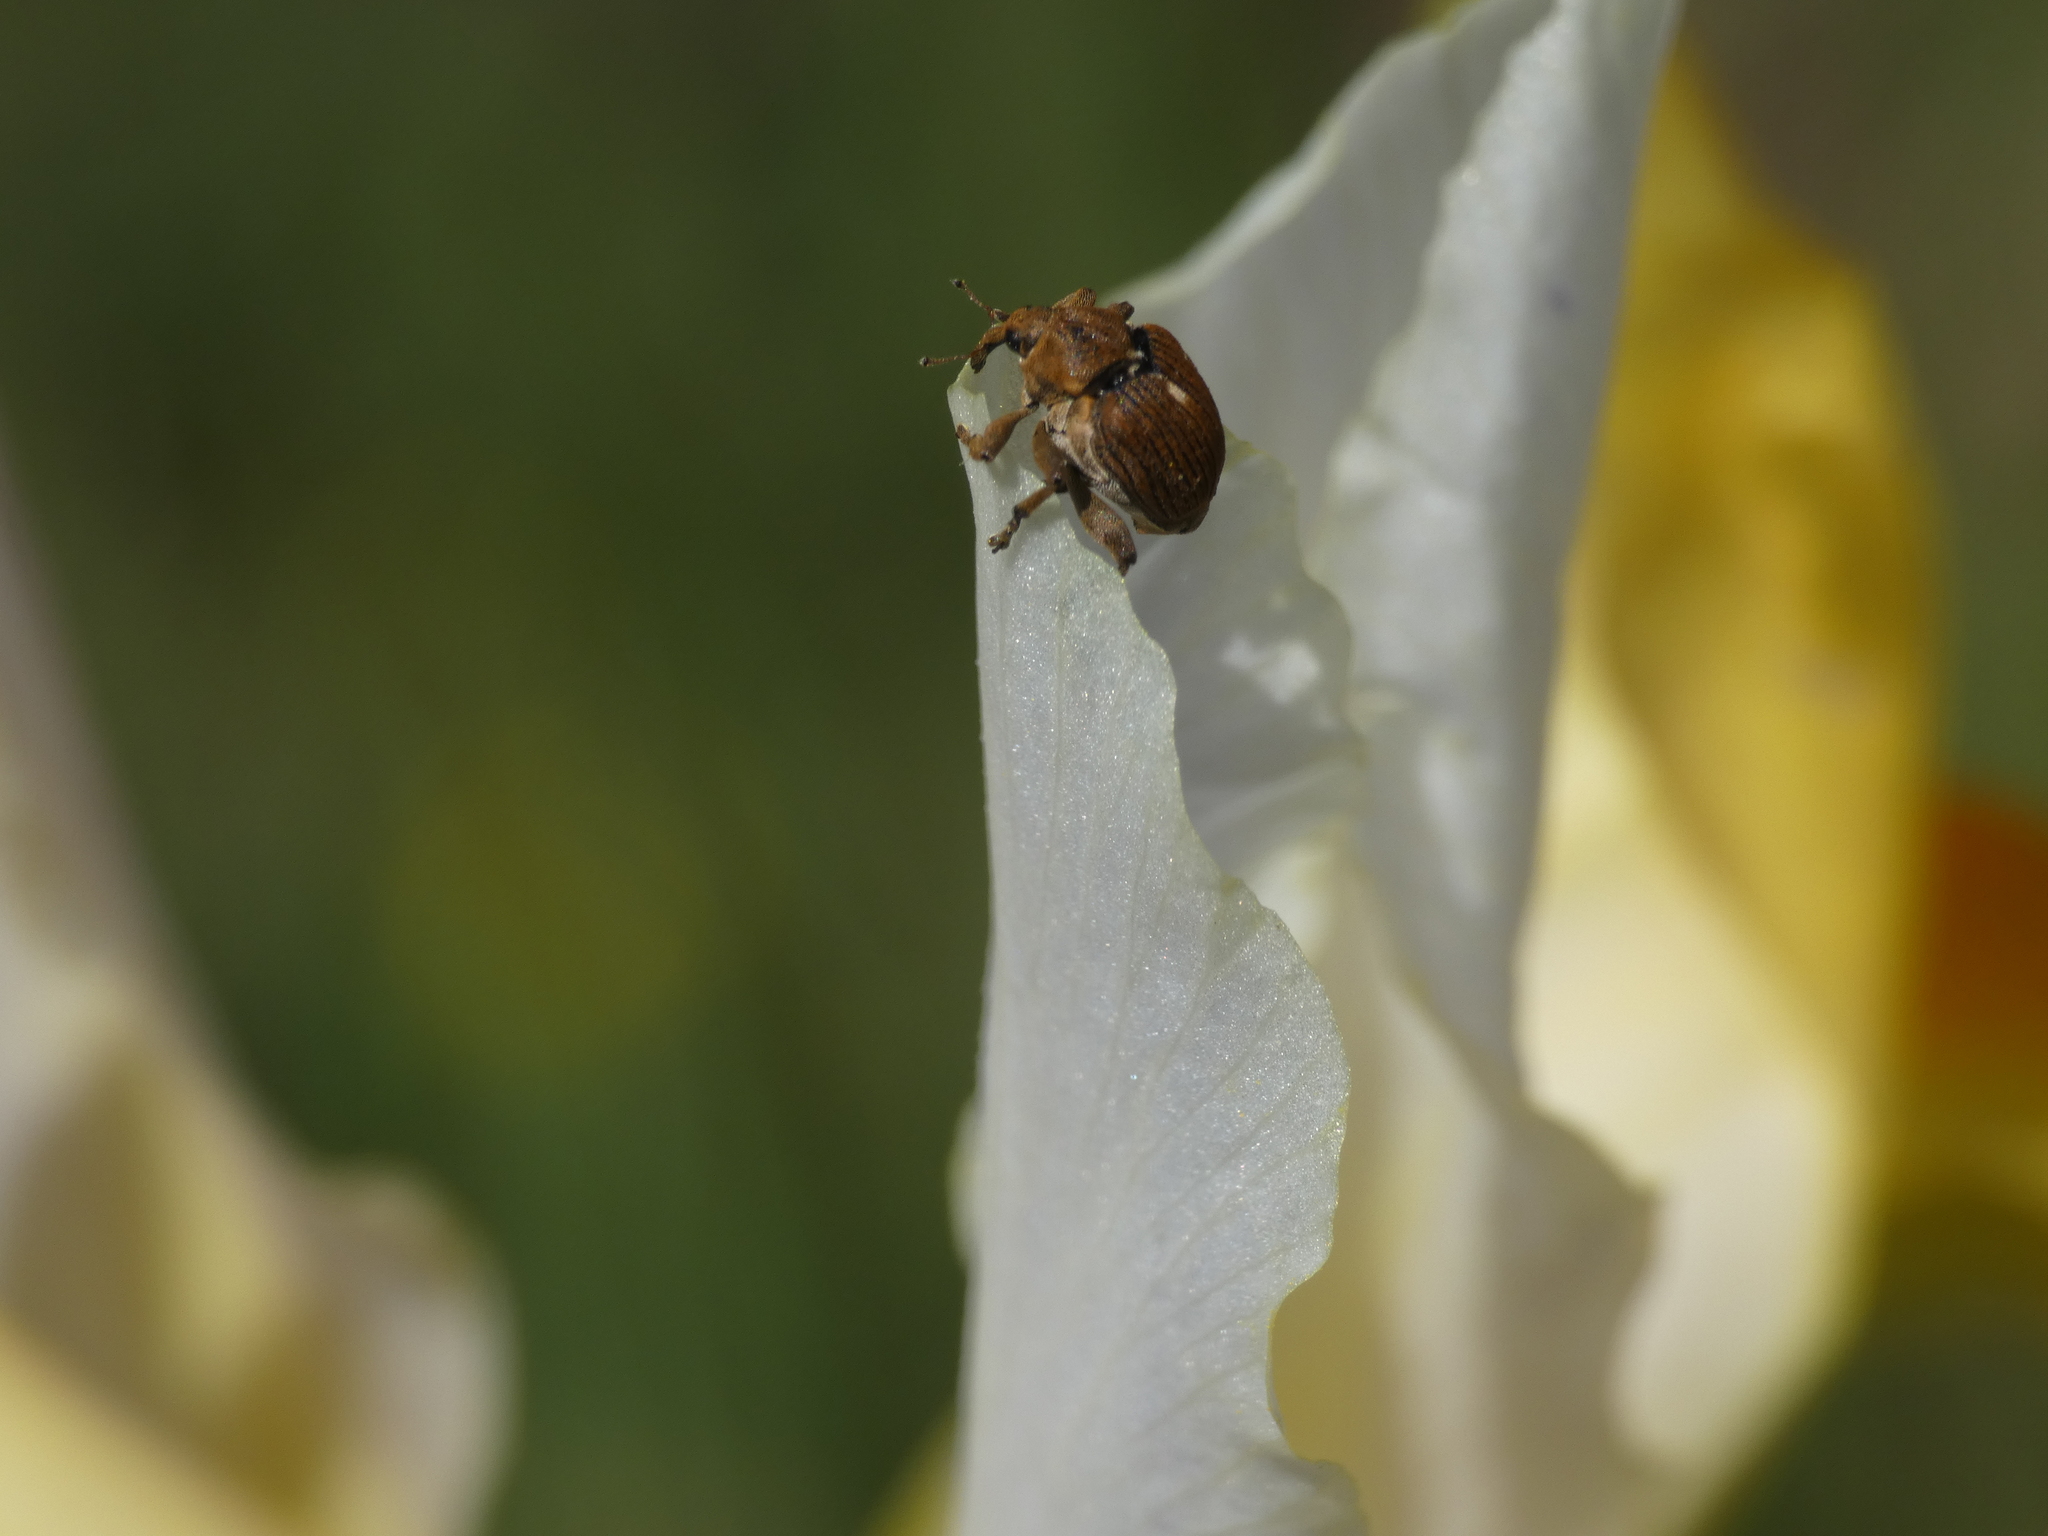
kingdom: Animalia
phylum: Arthropoda
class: Insecta
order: Coleoptera
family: Curculionidae
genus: Mononychus
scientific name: Mononychus punctumalbum
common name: Iris weevil
